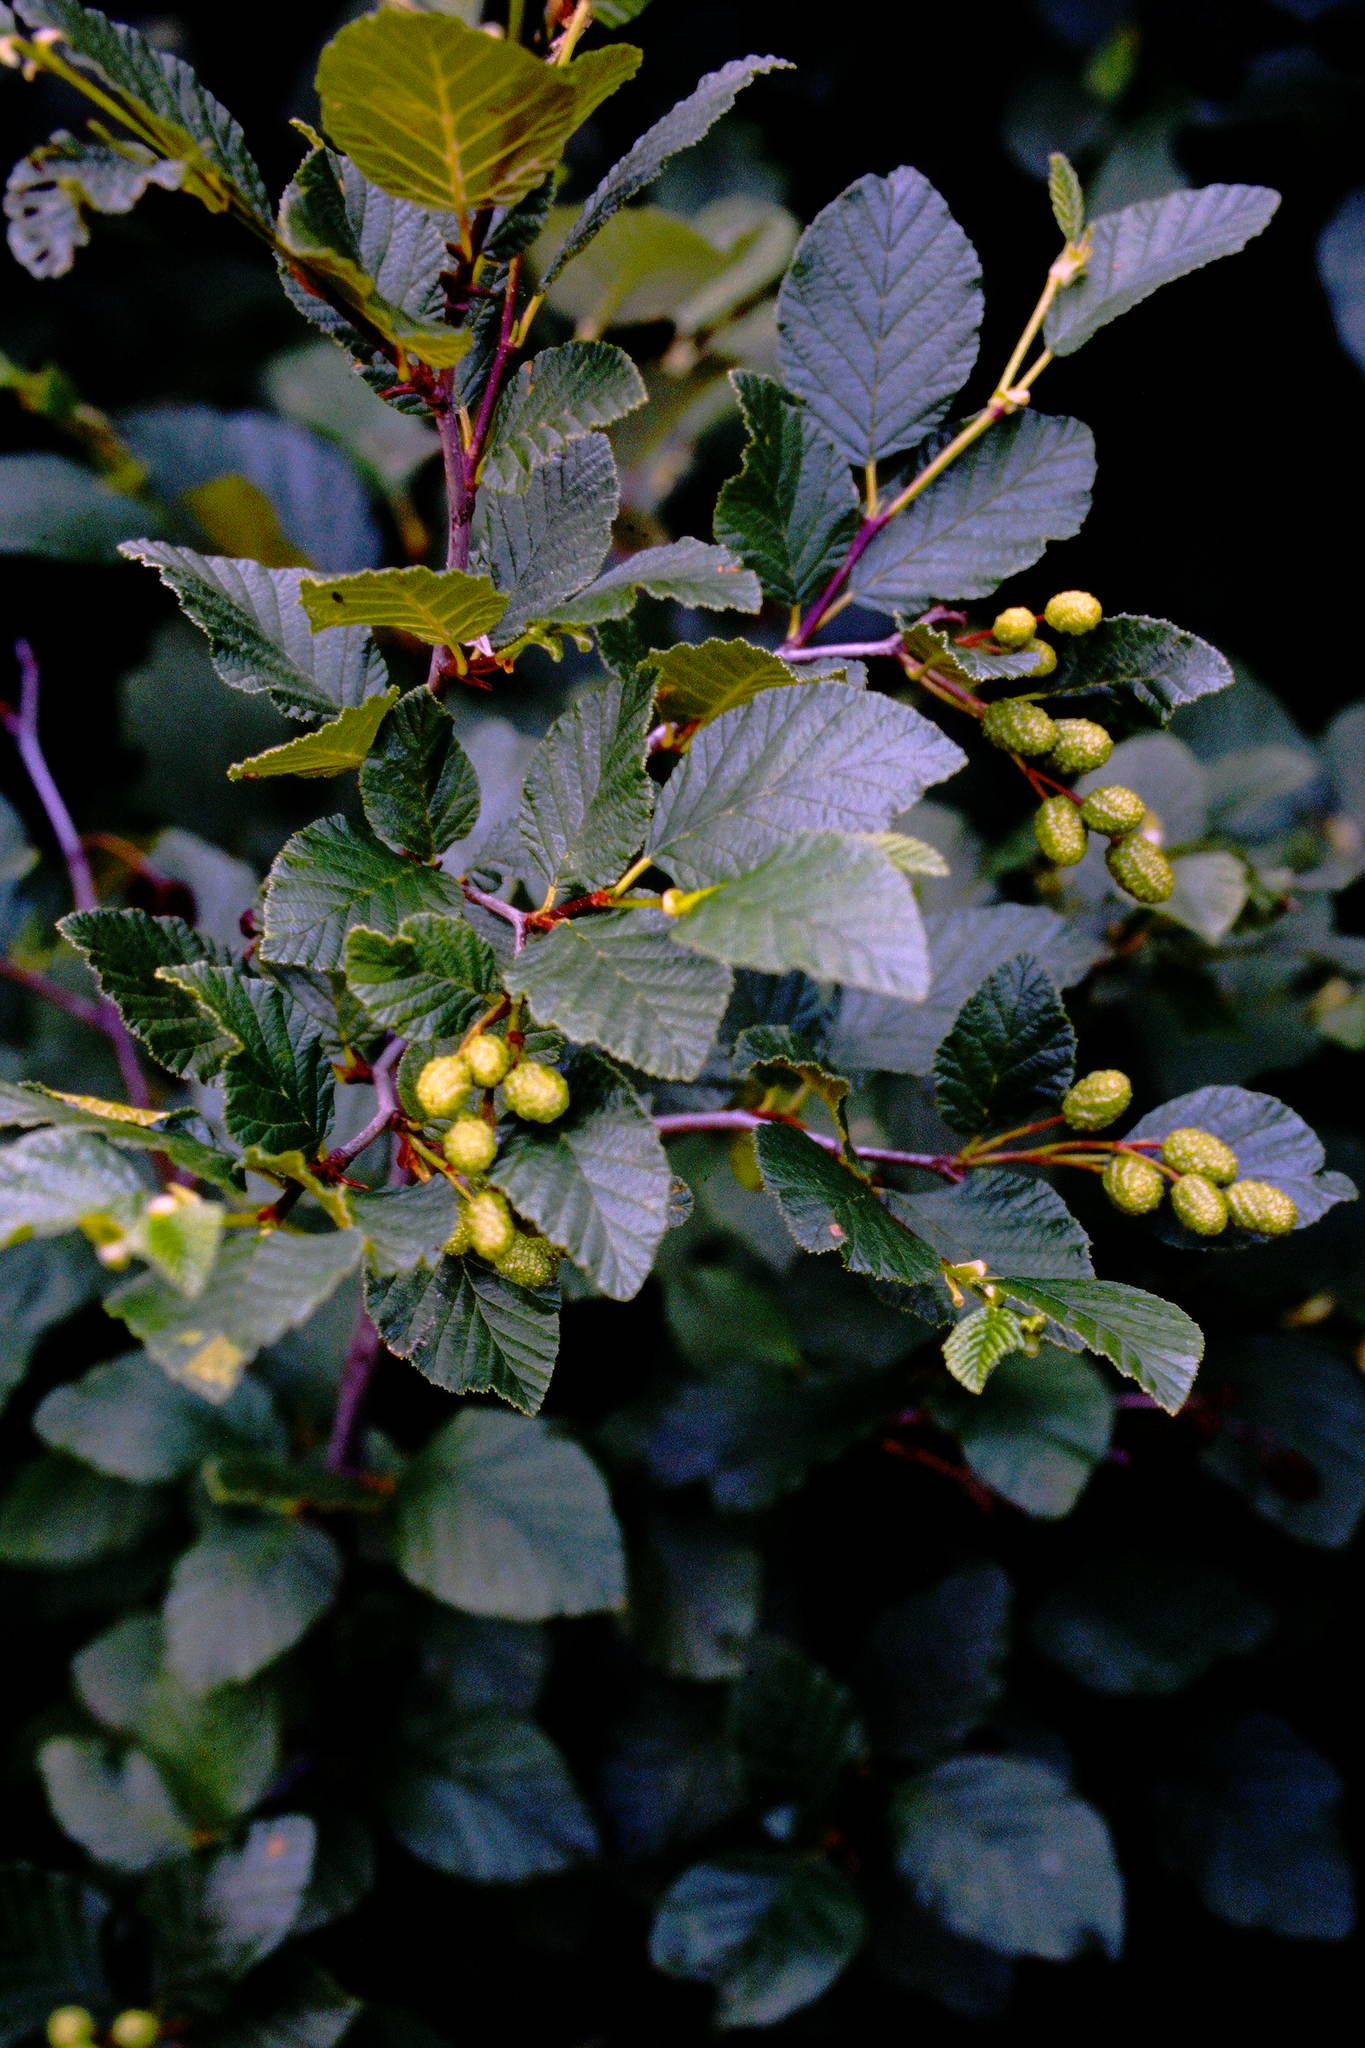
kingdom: Plantae
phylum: Tracheophyta
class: Magnoliopsida
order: Fagales
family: Betulaceae
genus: Alnus
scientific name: Alnus alnobetula
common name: Green alder
